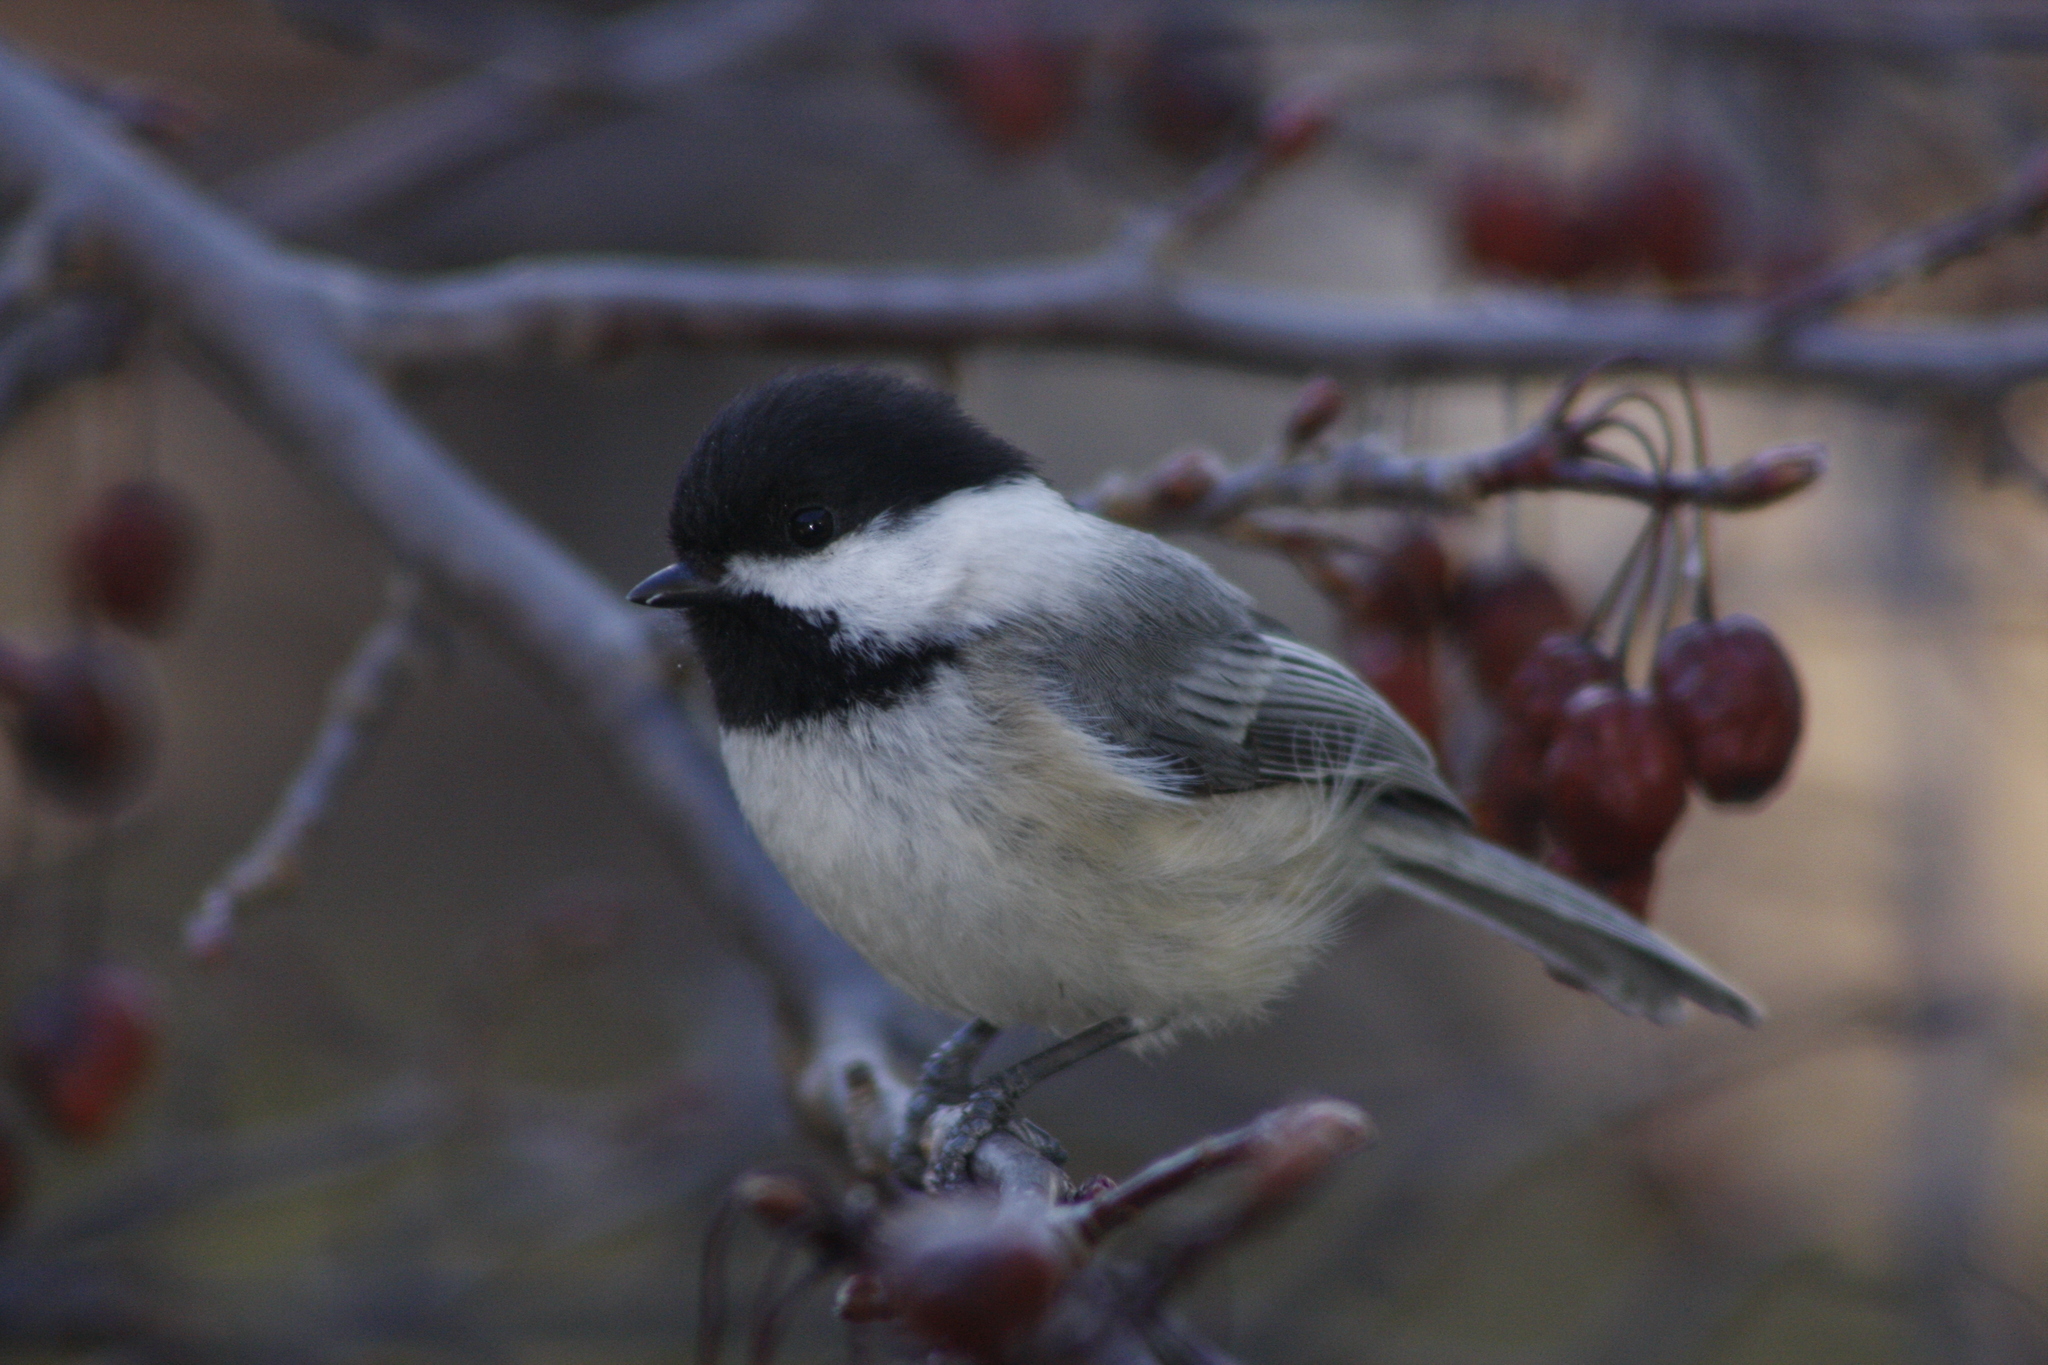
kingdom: Animalia
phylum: Chordata
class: Aves
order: Passeriformes
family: Paridae
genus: Poecile
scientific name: Poecile atricapillus
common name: Black-capped chickadee
